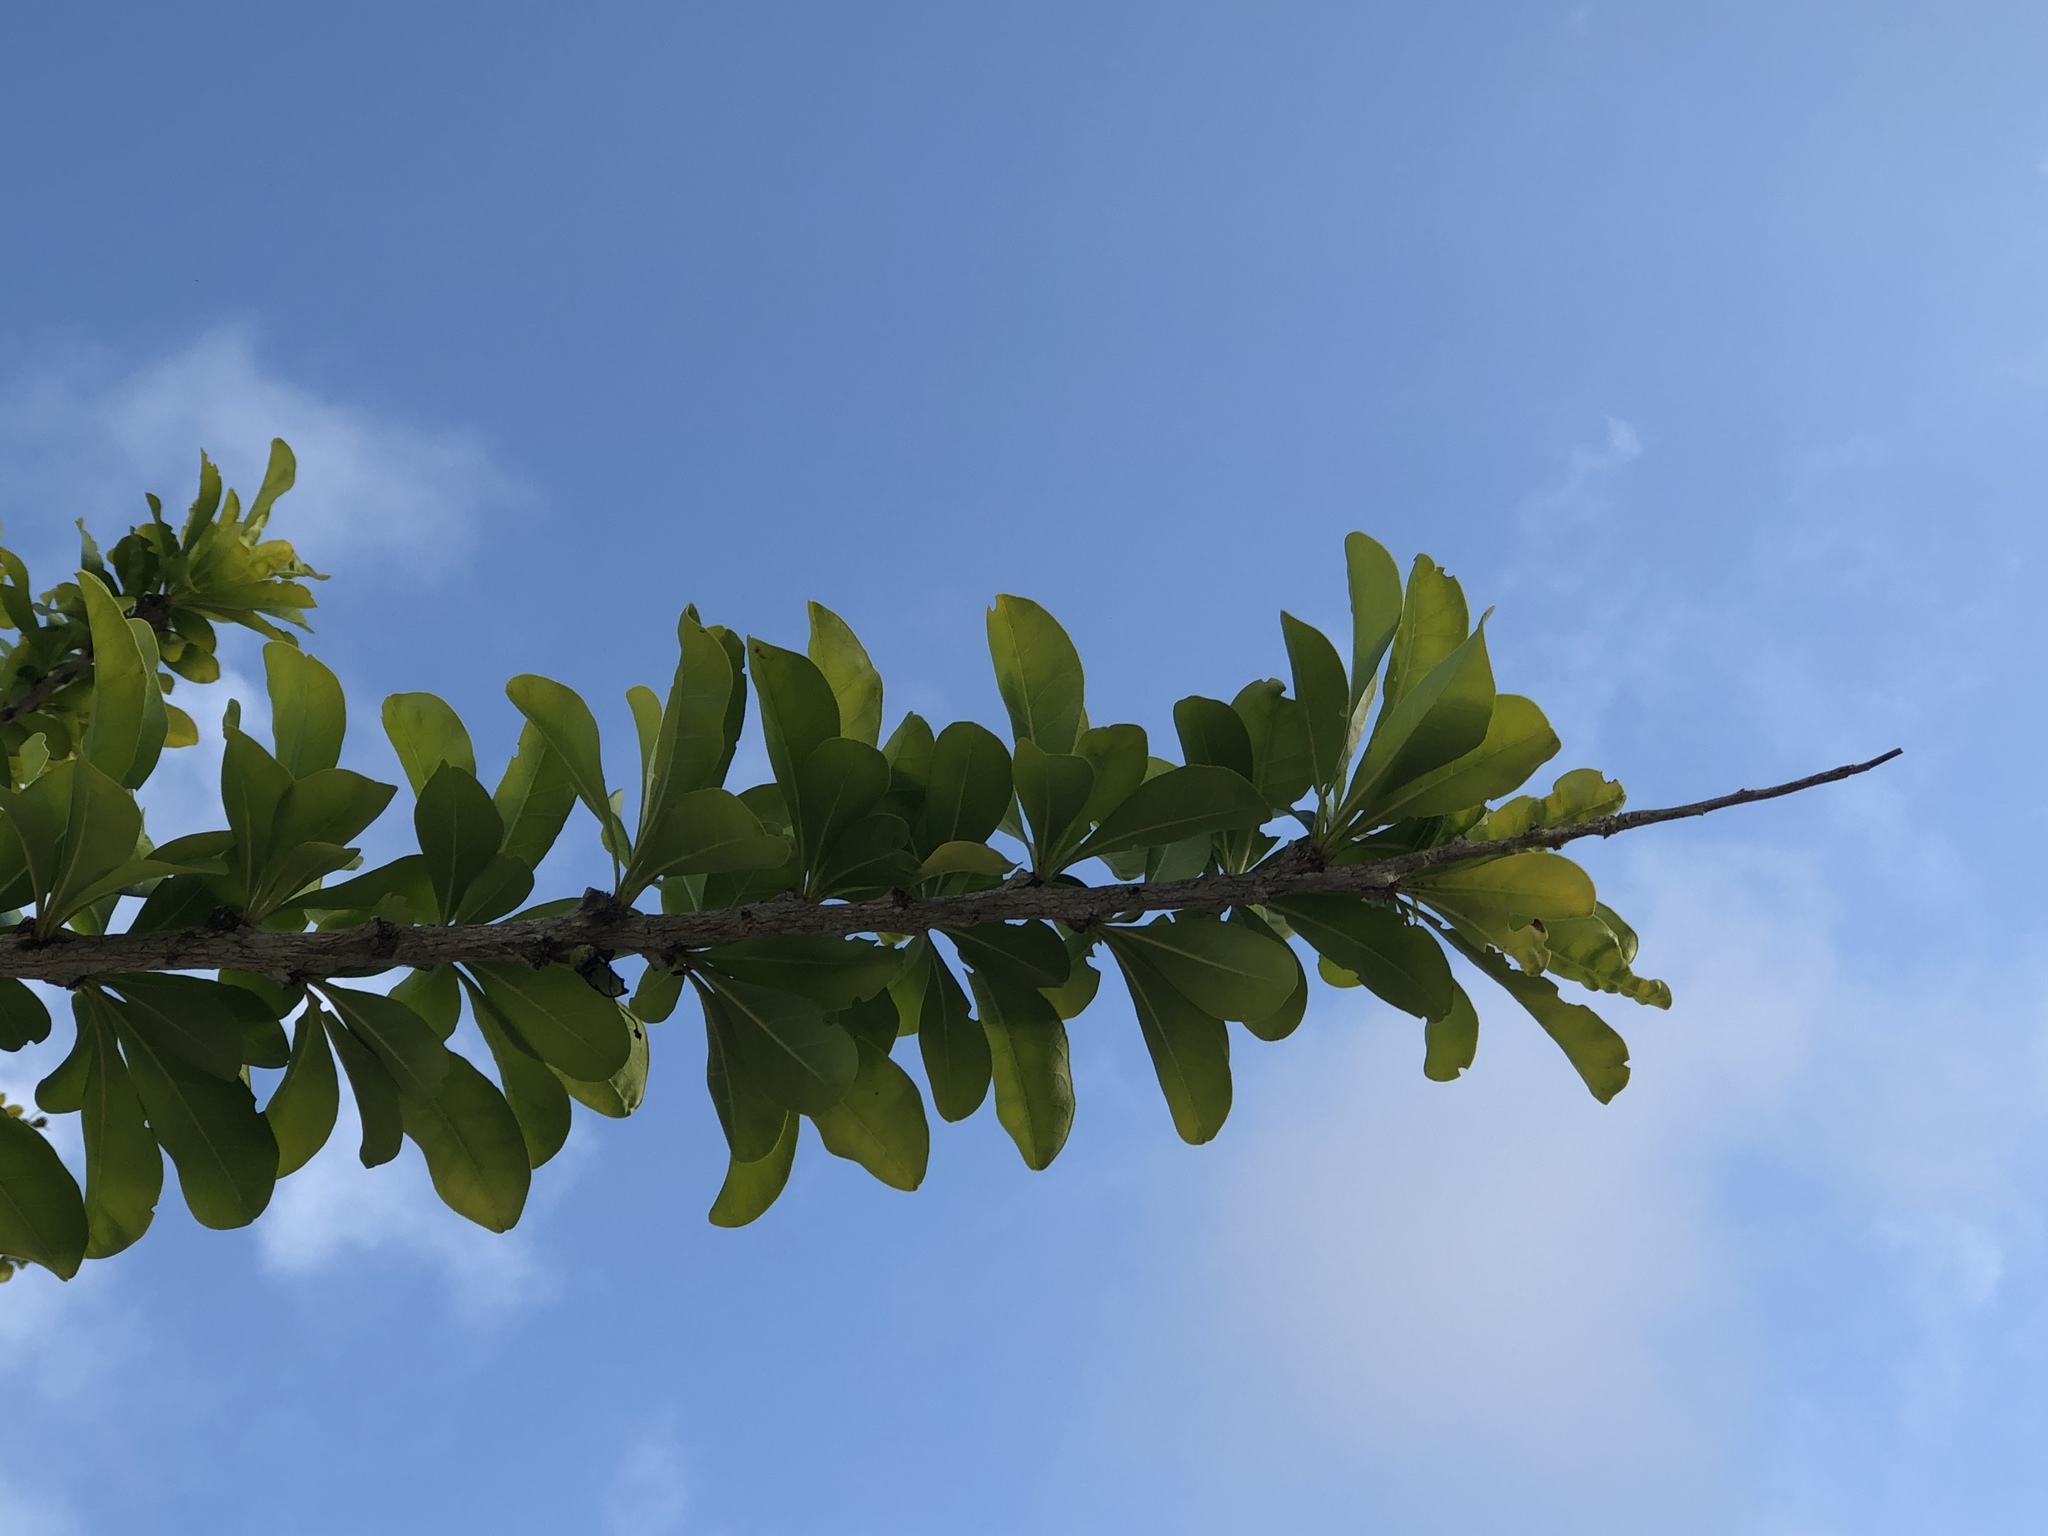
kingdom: Plantae
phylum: Tracheophyta
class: Magnoliopsida
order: Lamiales
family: Bignoniaceae
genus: Crescentia
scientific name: Crescentia cujete
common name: Calabash
